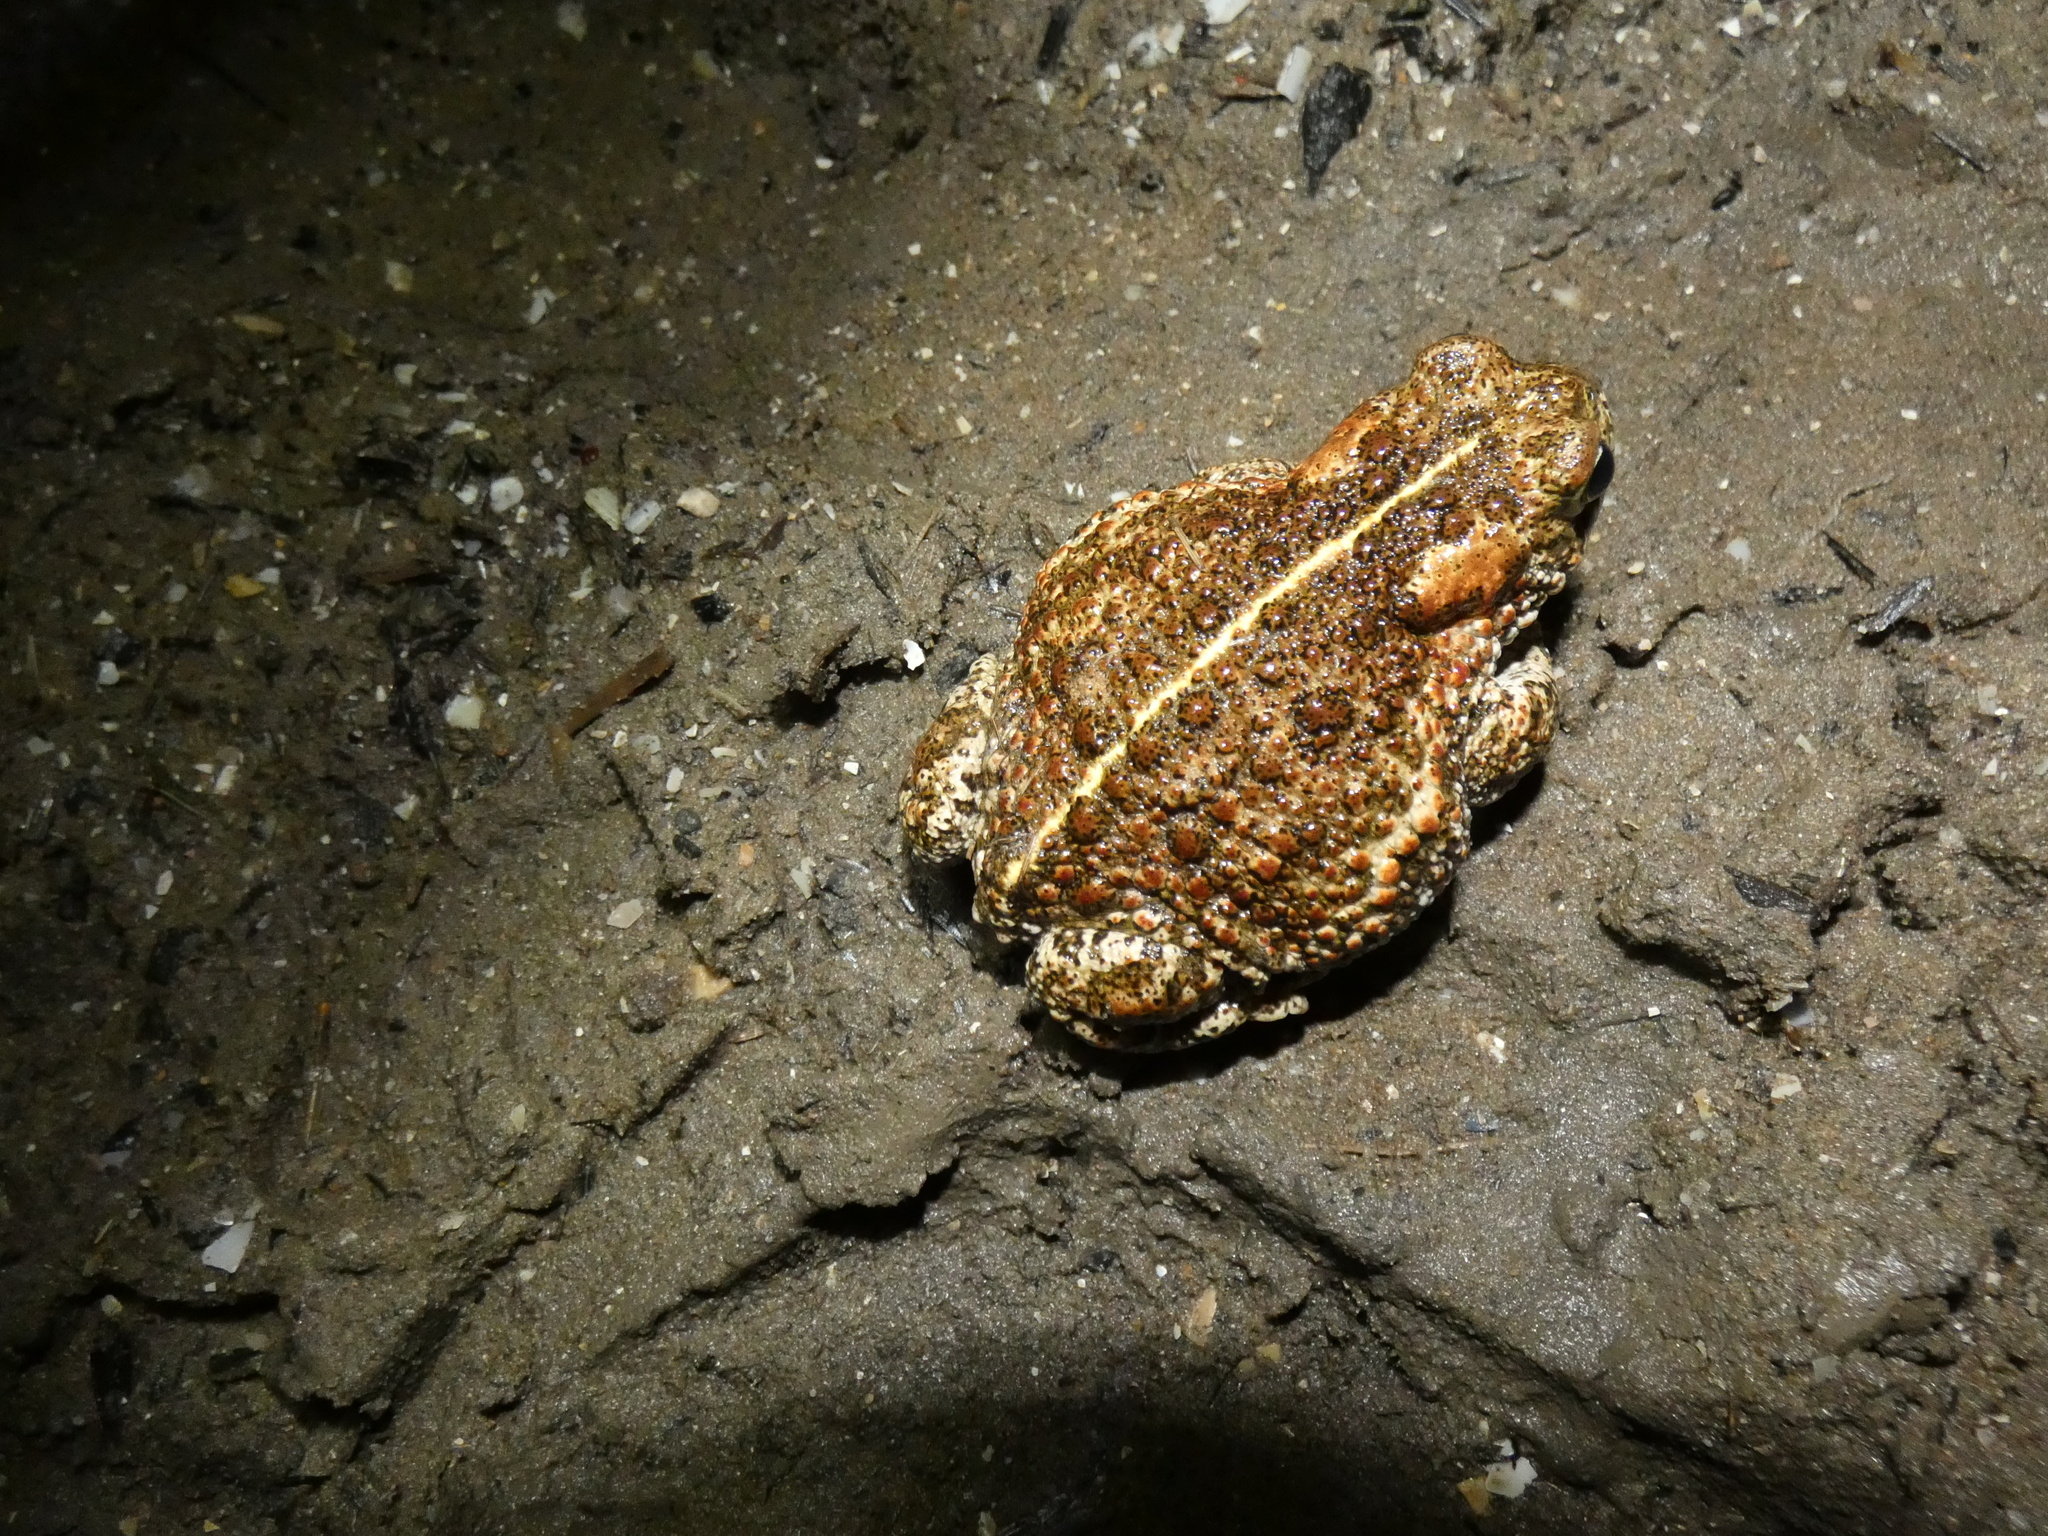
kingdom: Animalia
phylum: Chordata
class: Amphibia
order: Anura
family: Bufonidae
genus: Epidalea
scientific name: Epidalea calamita
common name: Natterjack toad
